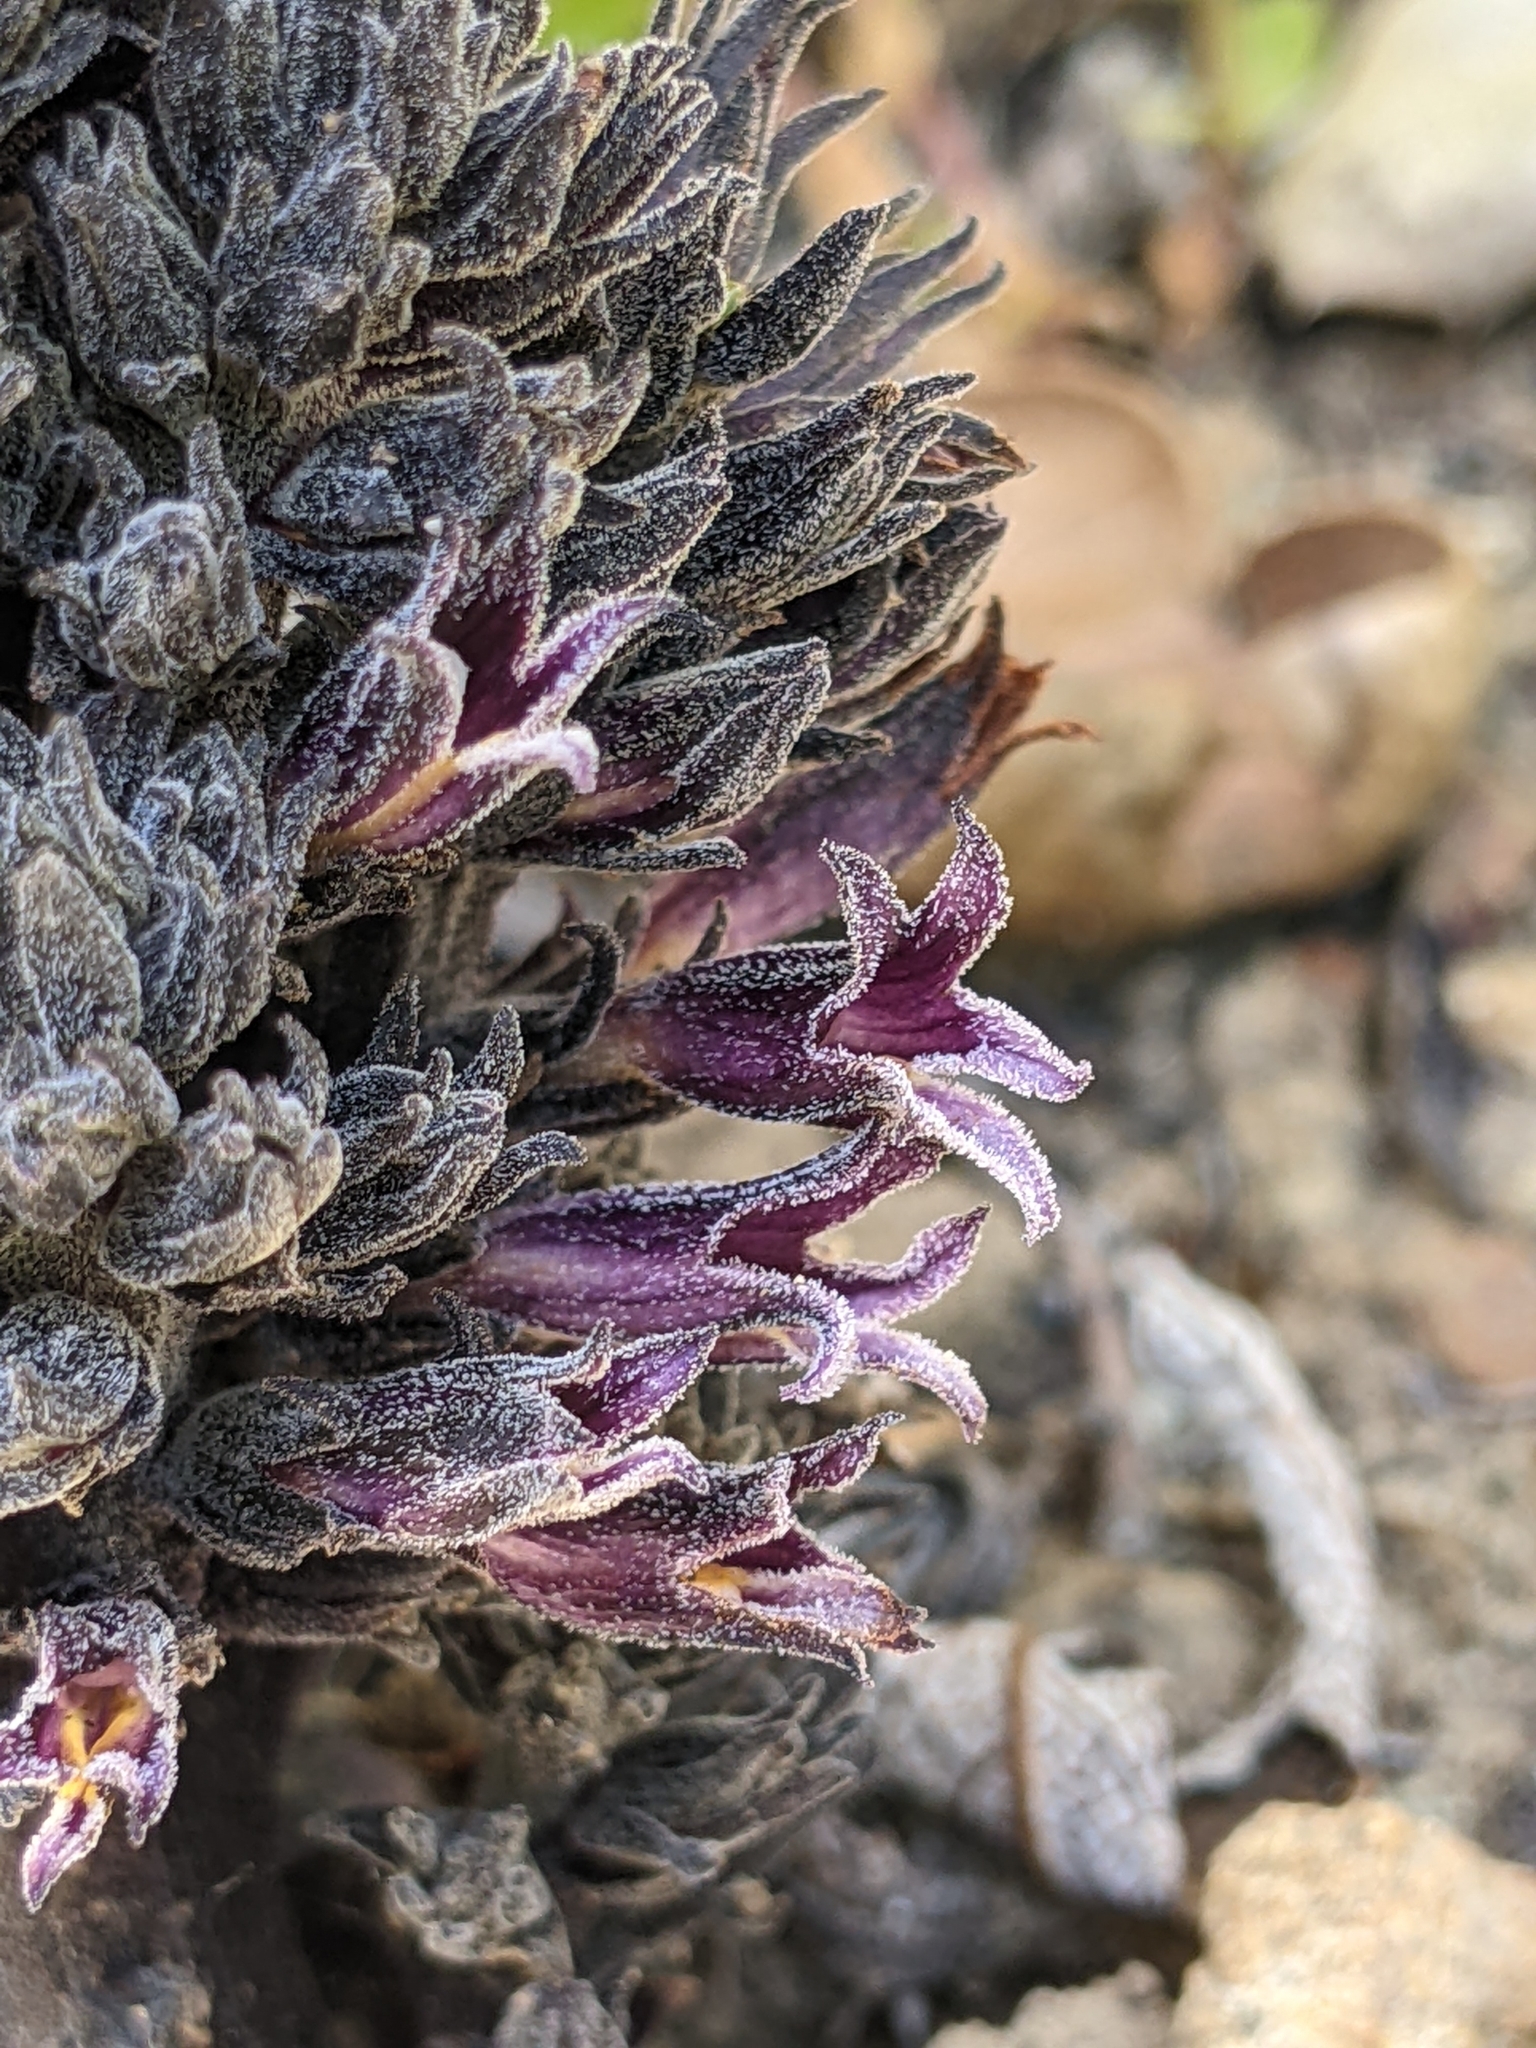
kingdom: Plantae
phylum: Tracheophyta
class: Magnoliopsida
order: Lamiales
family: Orobanchaceae
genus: Aphyllon
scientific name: Aphyllon tuberosum
